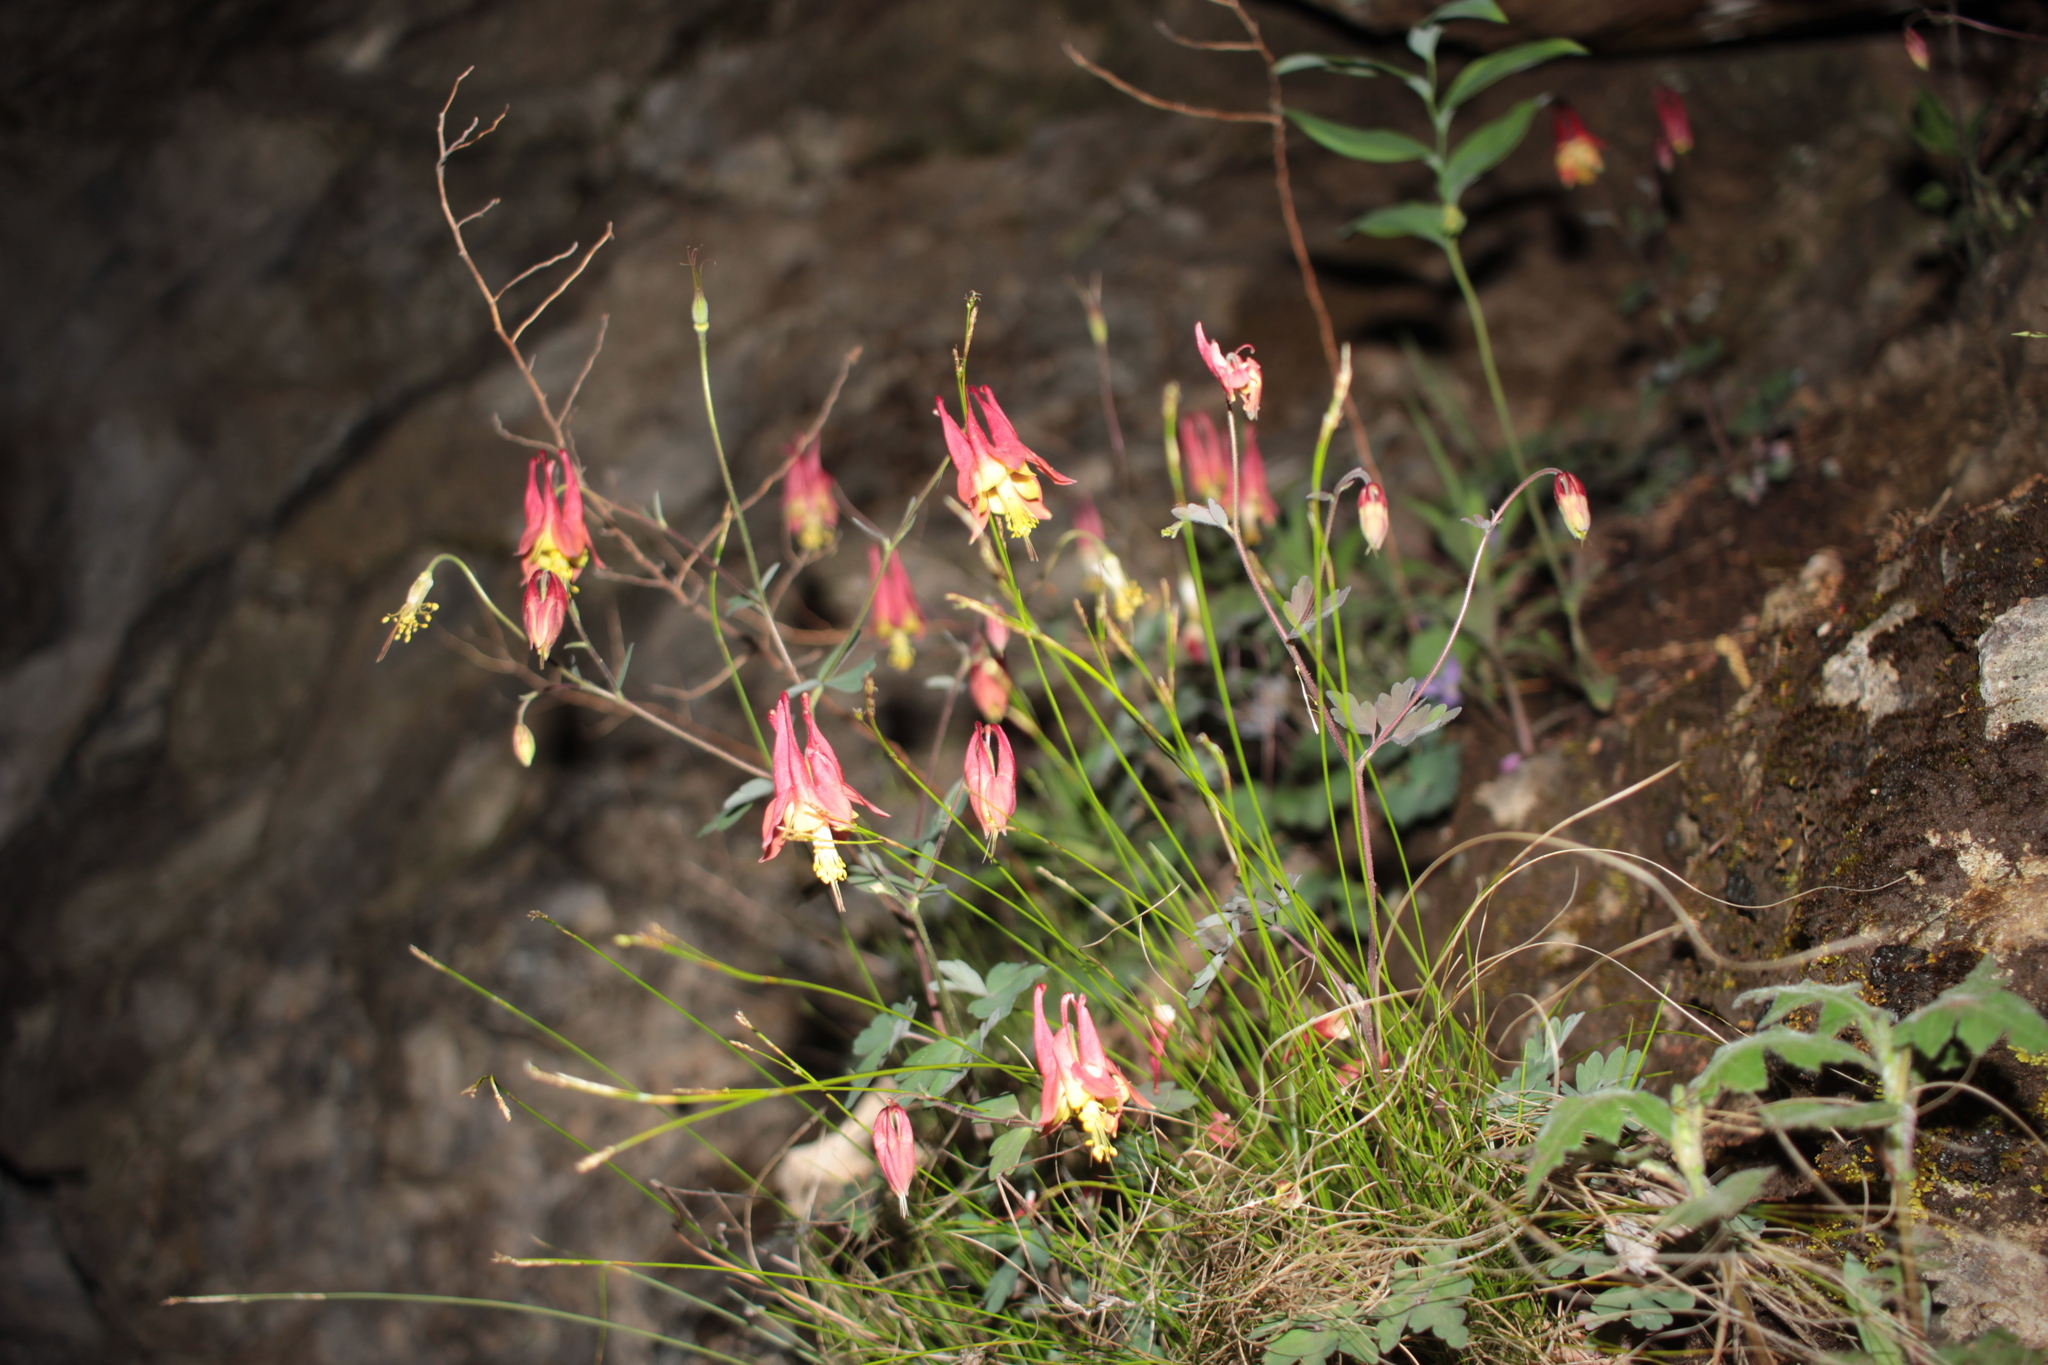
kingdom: Plantae
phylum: Tracheophyta
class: Magnoliopsida
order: Ranunculales
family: Ranunculaceae
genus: Aquilegia
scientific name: Aquilegia canadensis
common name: American columbine
